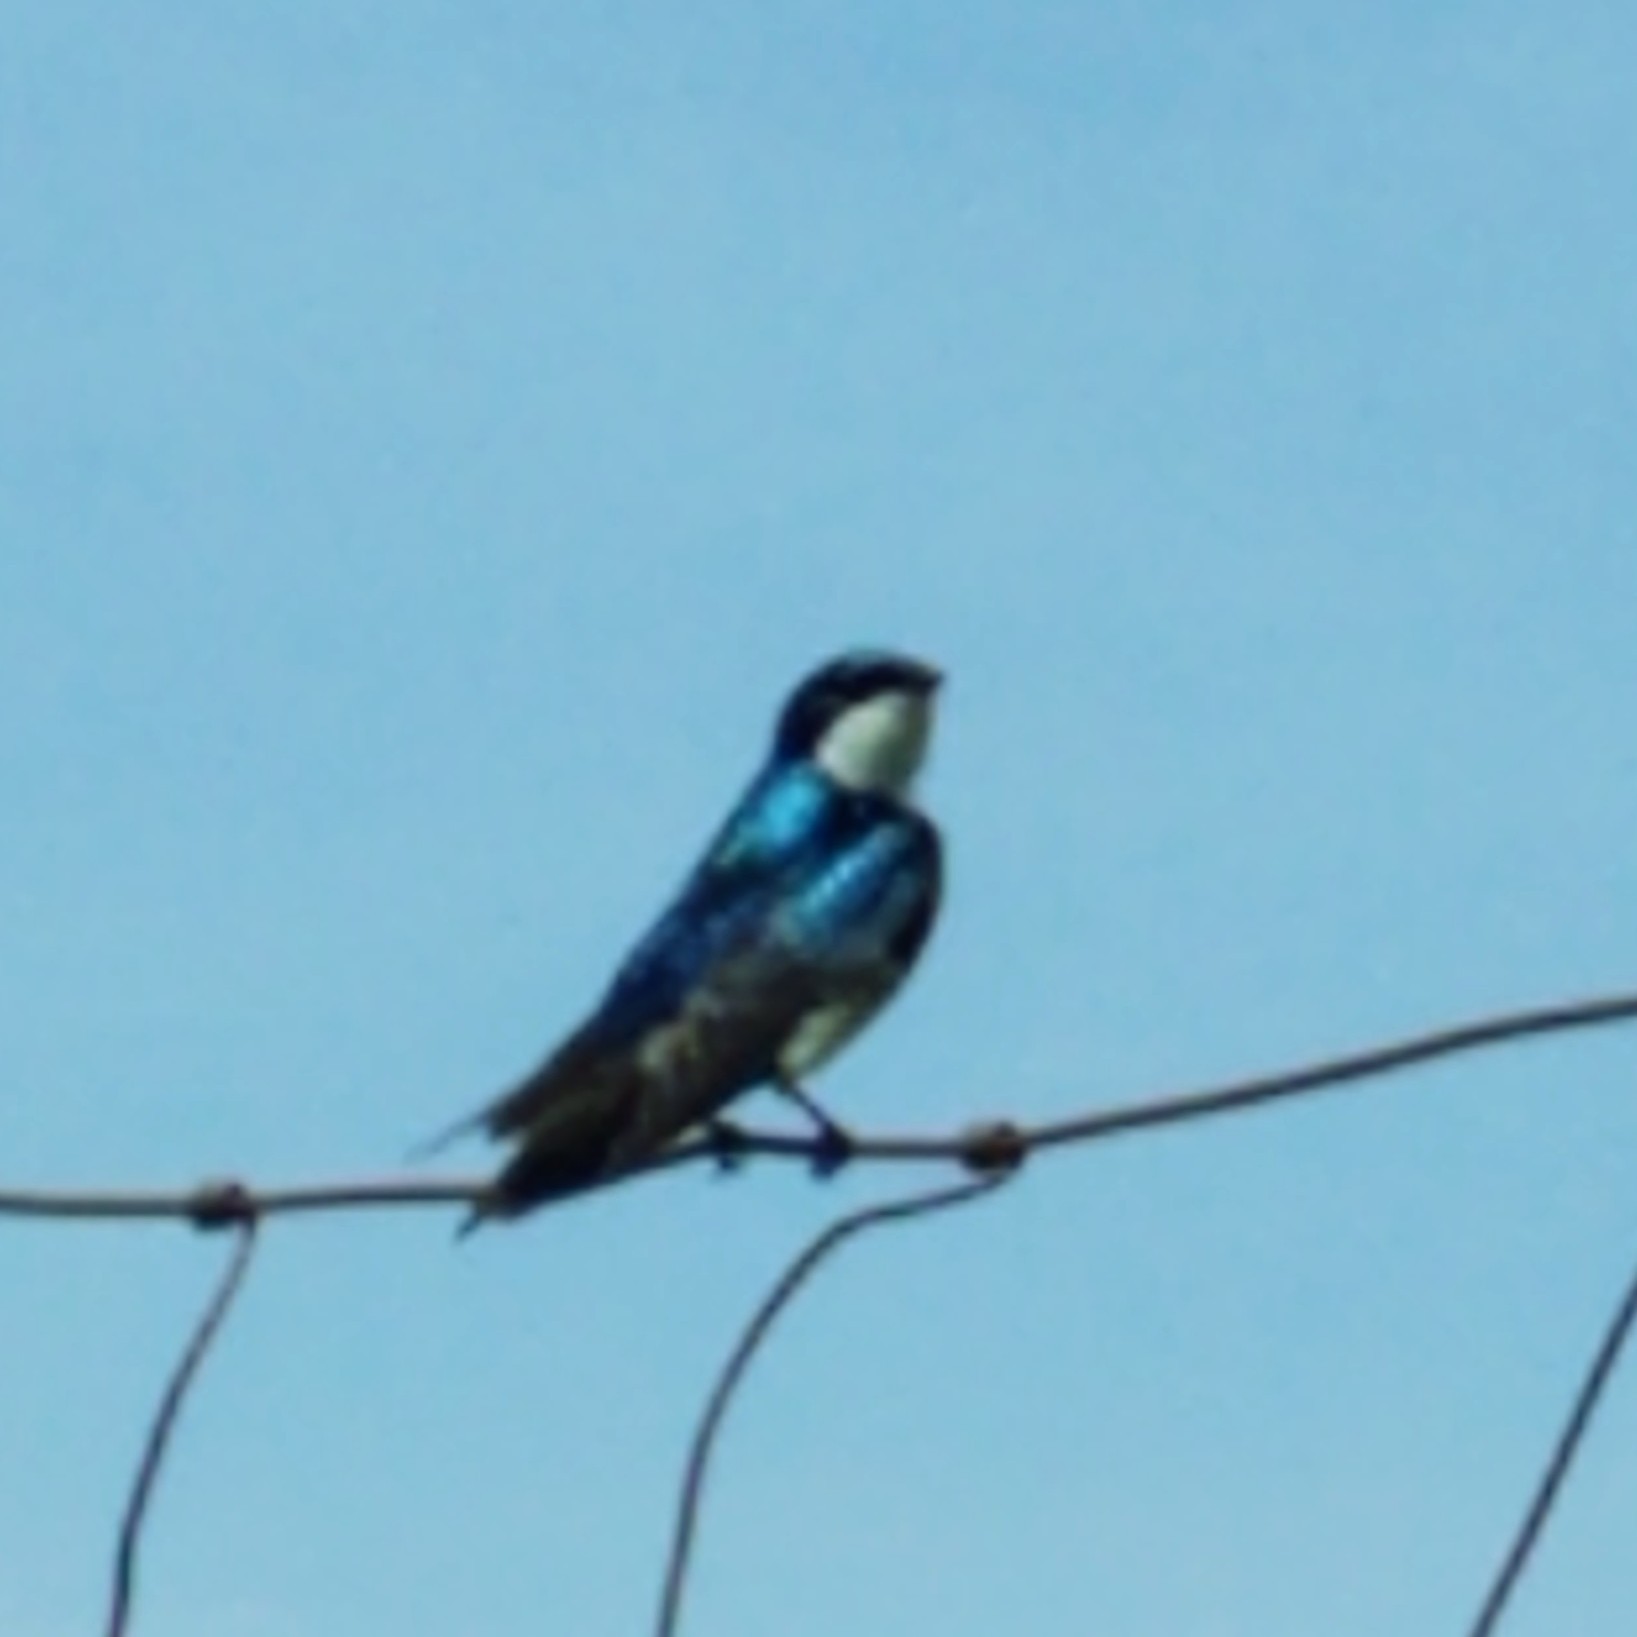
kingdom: Animalia
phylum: Chordata
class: Aves
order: Passeriformes
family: Hirundinidae
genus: Tachycineta
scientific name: Tachycineta bicolor
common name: Tree swallow
